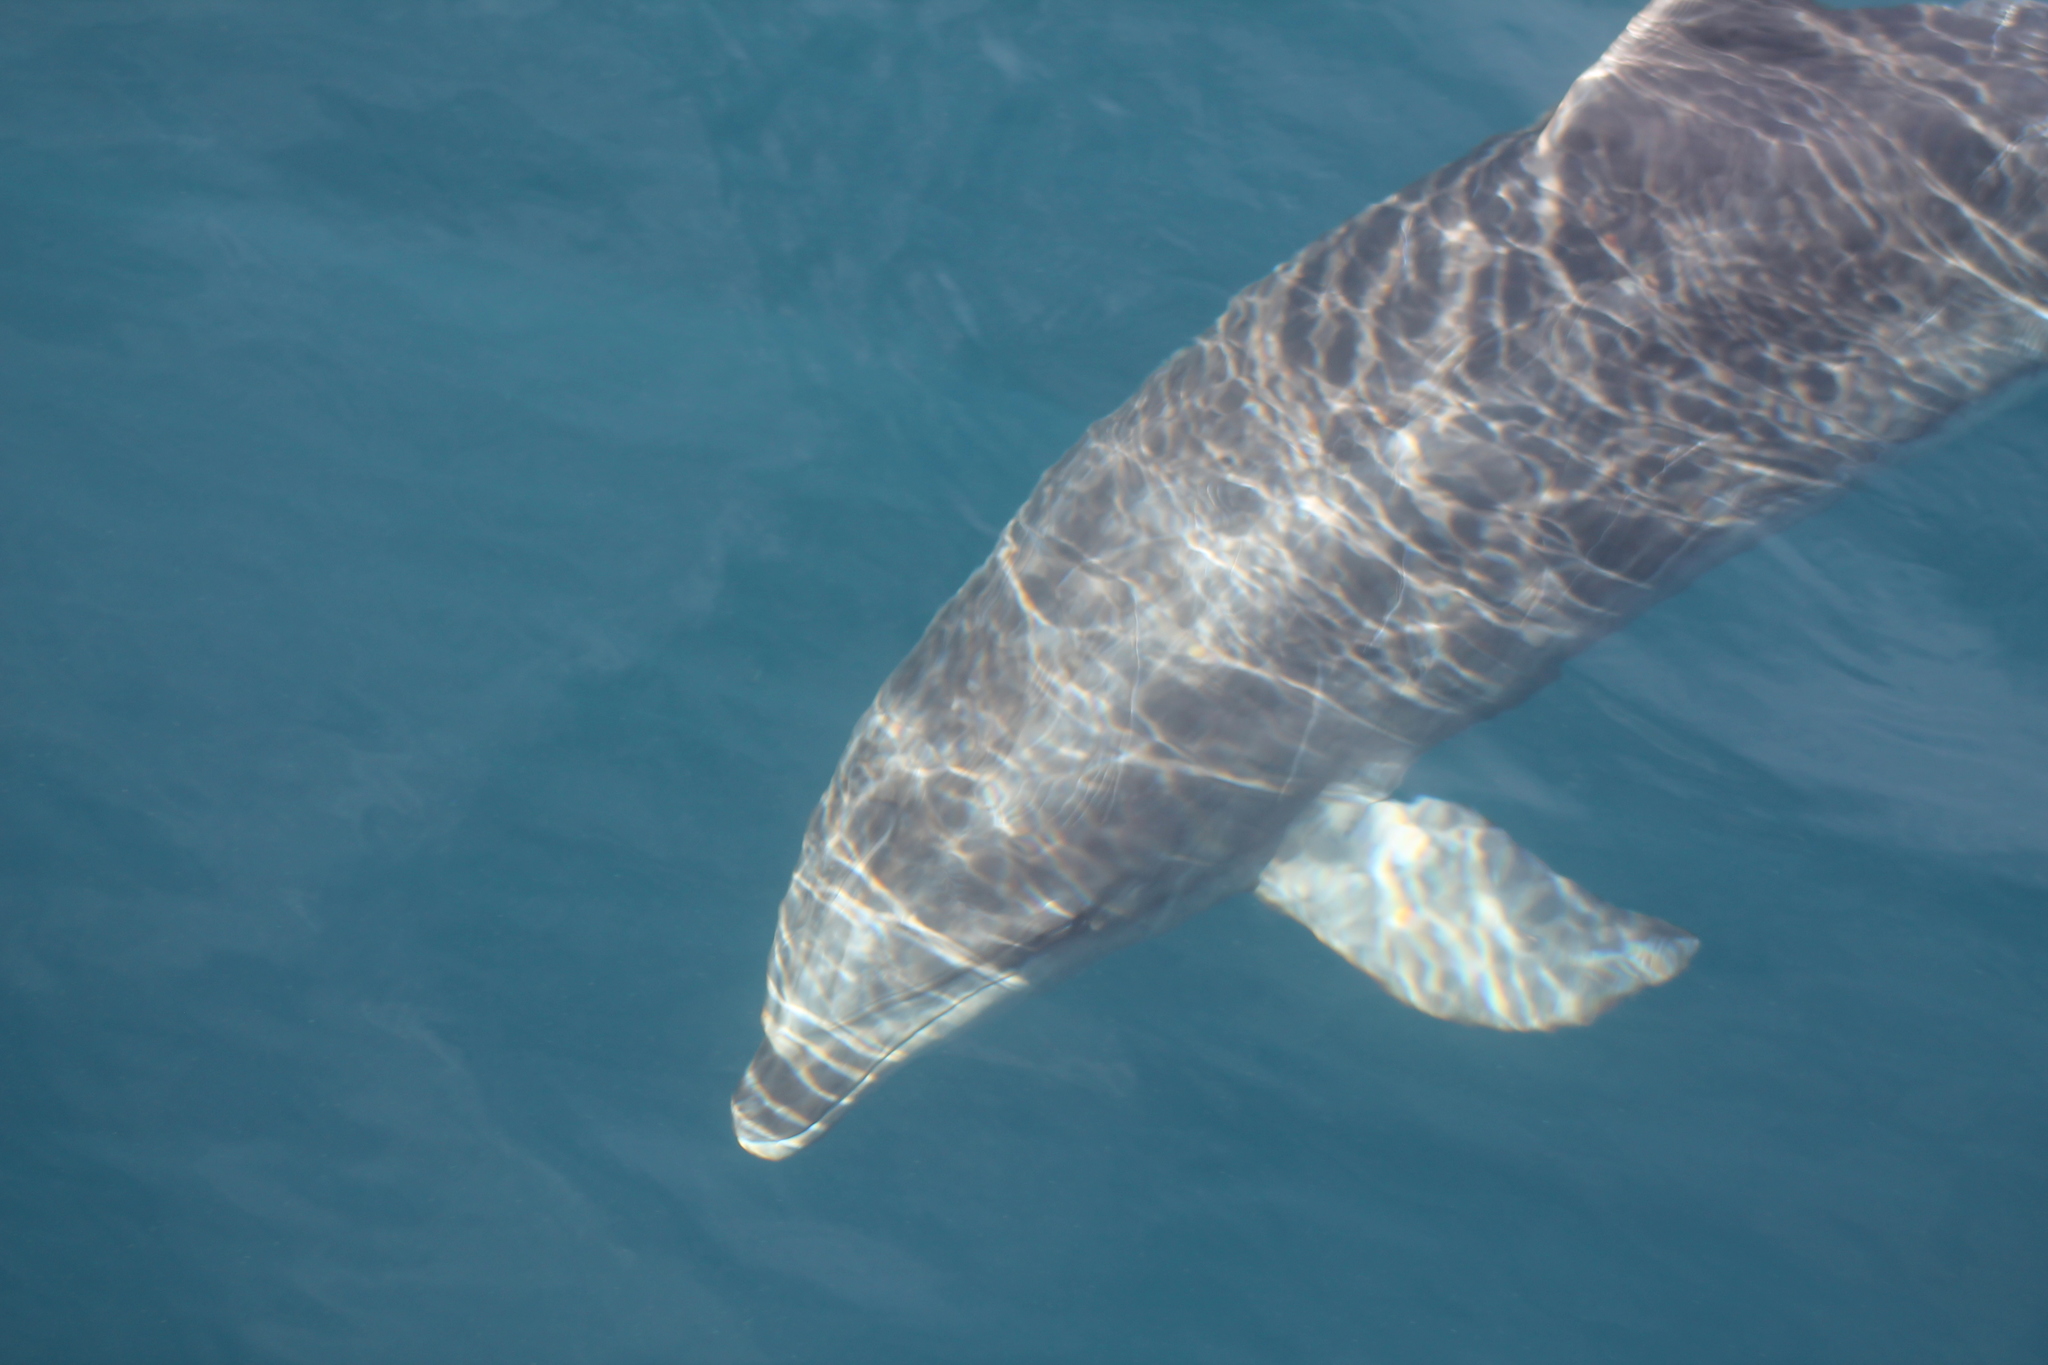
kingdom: Animalia
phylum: Chordata
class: Mammalia
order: Cetacea
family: Delphinidae
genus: Tursiops
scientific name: Tursiops truncatus
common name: Bottlenose dolphin
